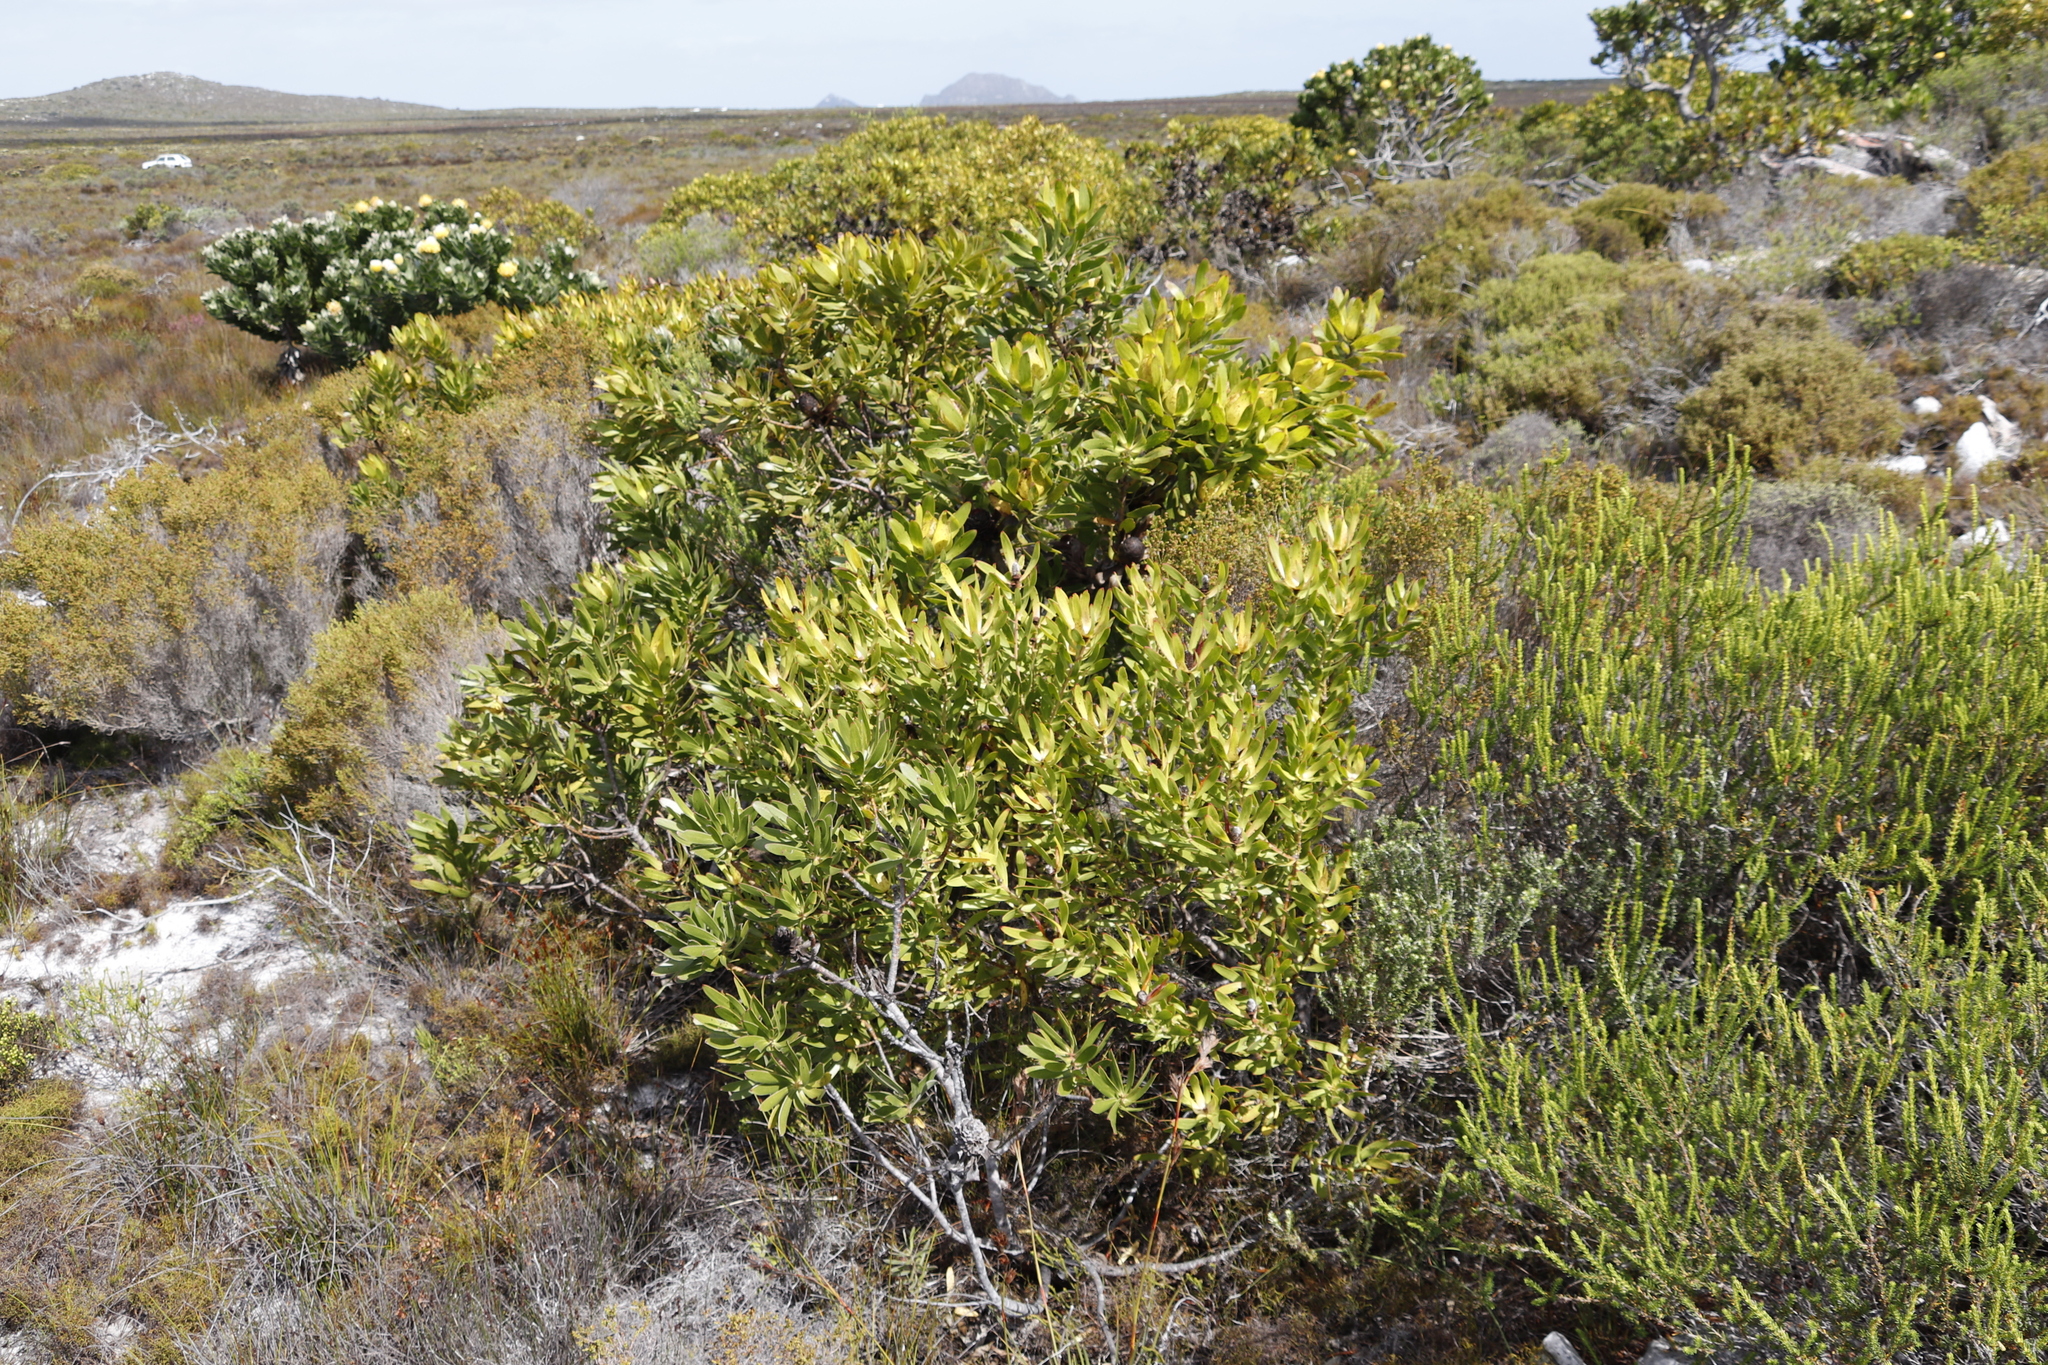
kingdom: Plantae
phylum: Tracheophyta
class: Magnoliopsida
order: Proteales
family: Proteaceae
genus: Leucadendron
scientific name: Leucadendron laureolum
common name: Golden sunshinebush
